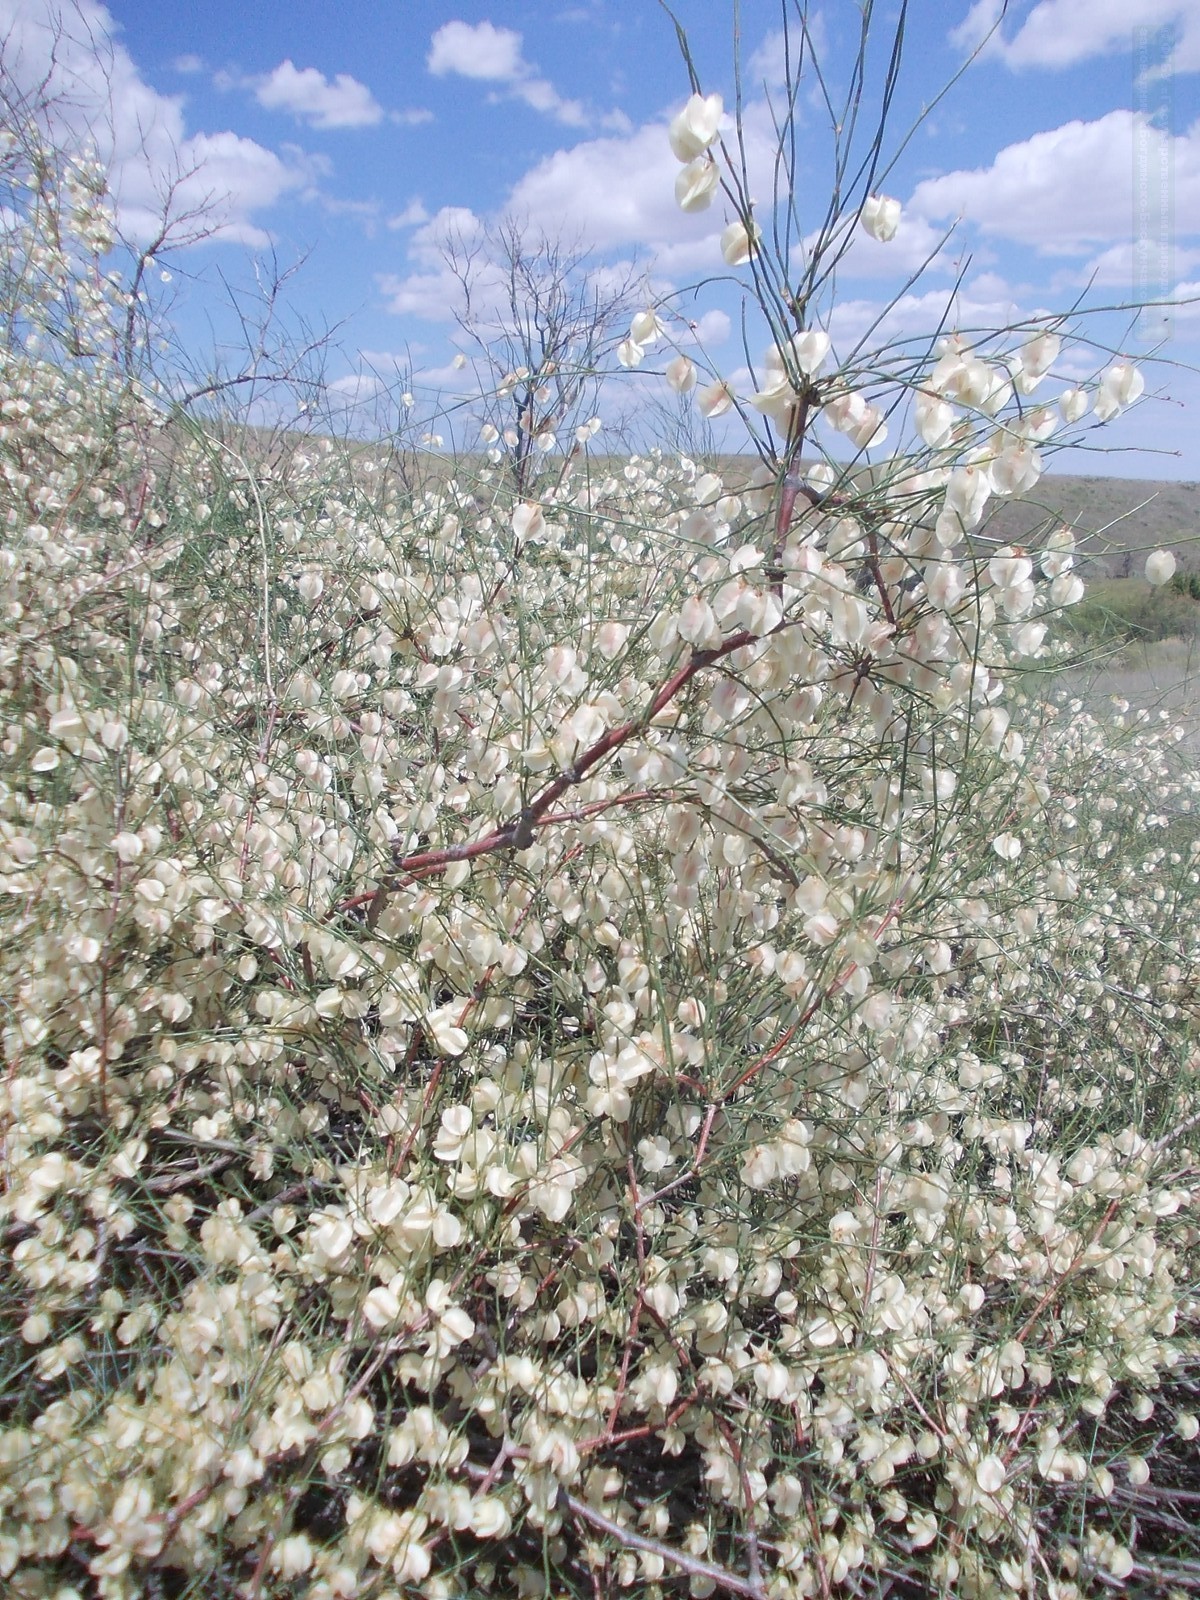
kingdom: Plantae
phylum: Tracheophyta
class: Magnoliopsida
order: Caryophyllales
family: Polygonaceae
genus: Calligonum
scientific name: Calligonum aphyllum
